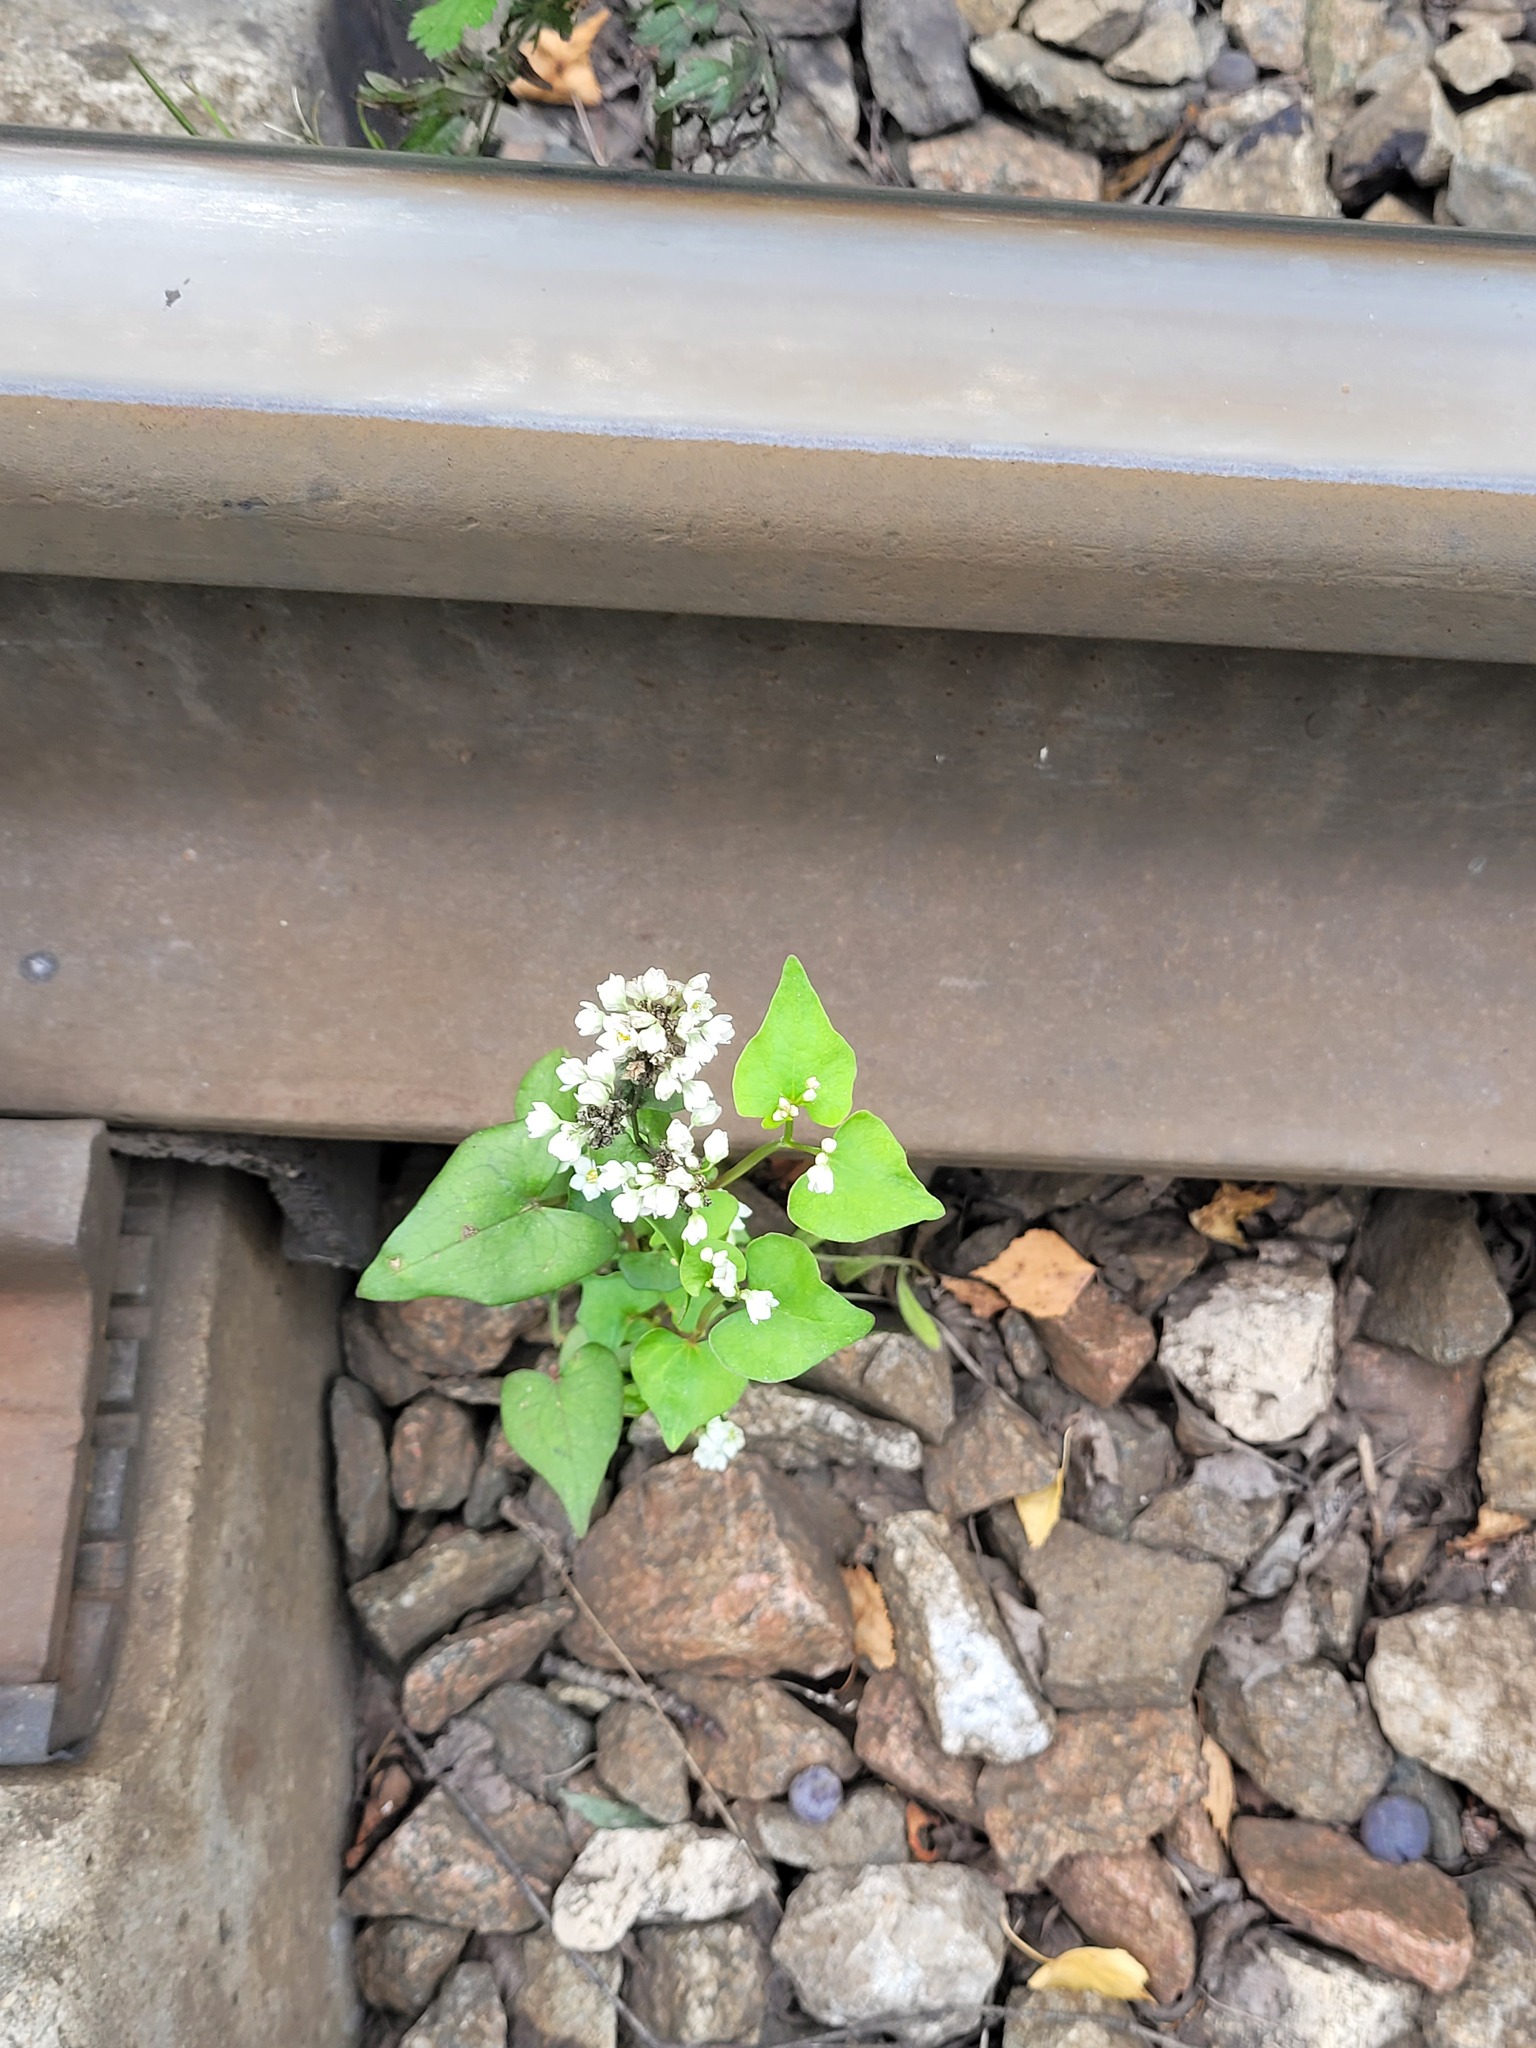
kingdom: Plantae
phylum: Tracheophyta
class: Magnoliopsida
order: Caryophyllales
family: Polygonaceae
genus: Fagopyrum
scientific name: Fagopyrum esculentum
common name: Buckwheat
